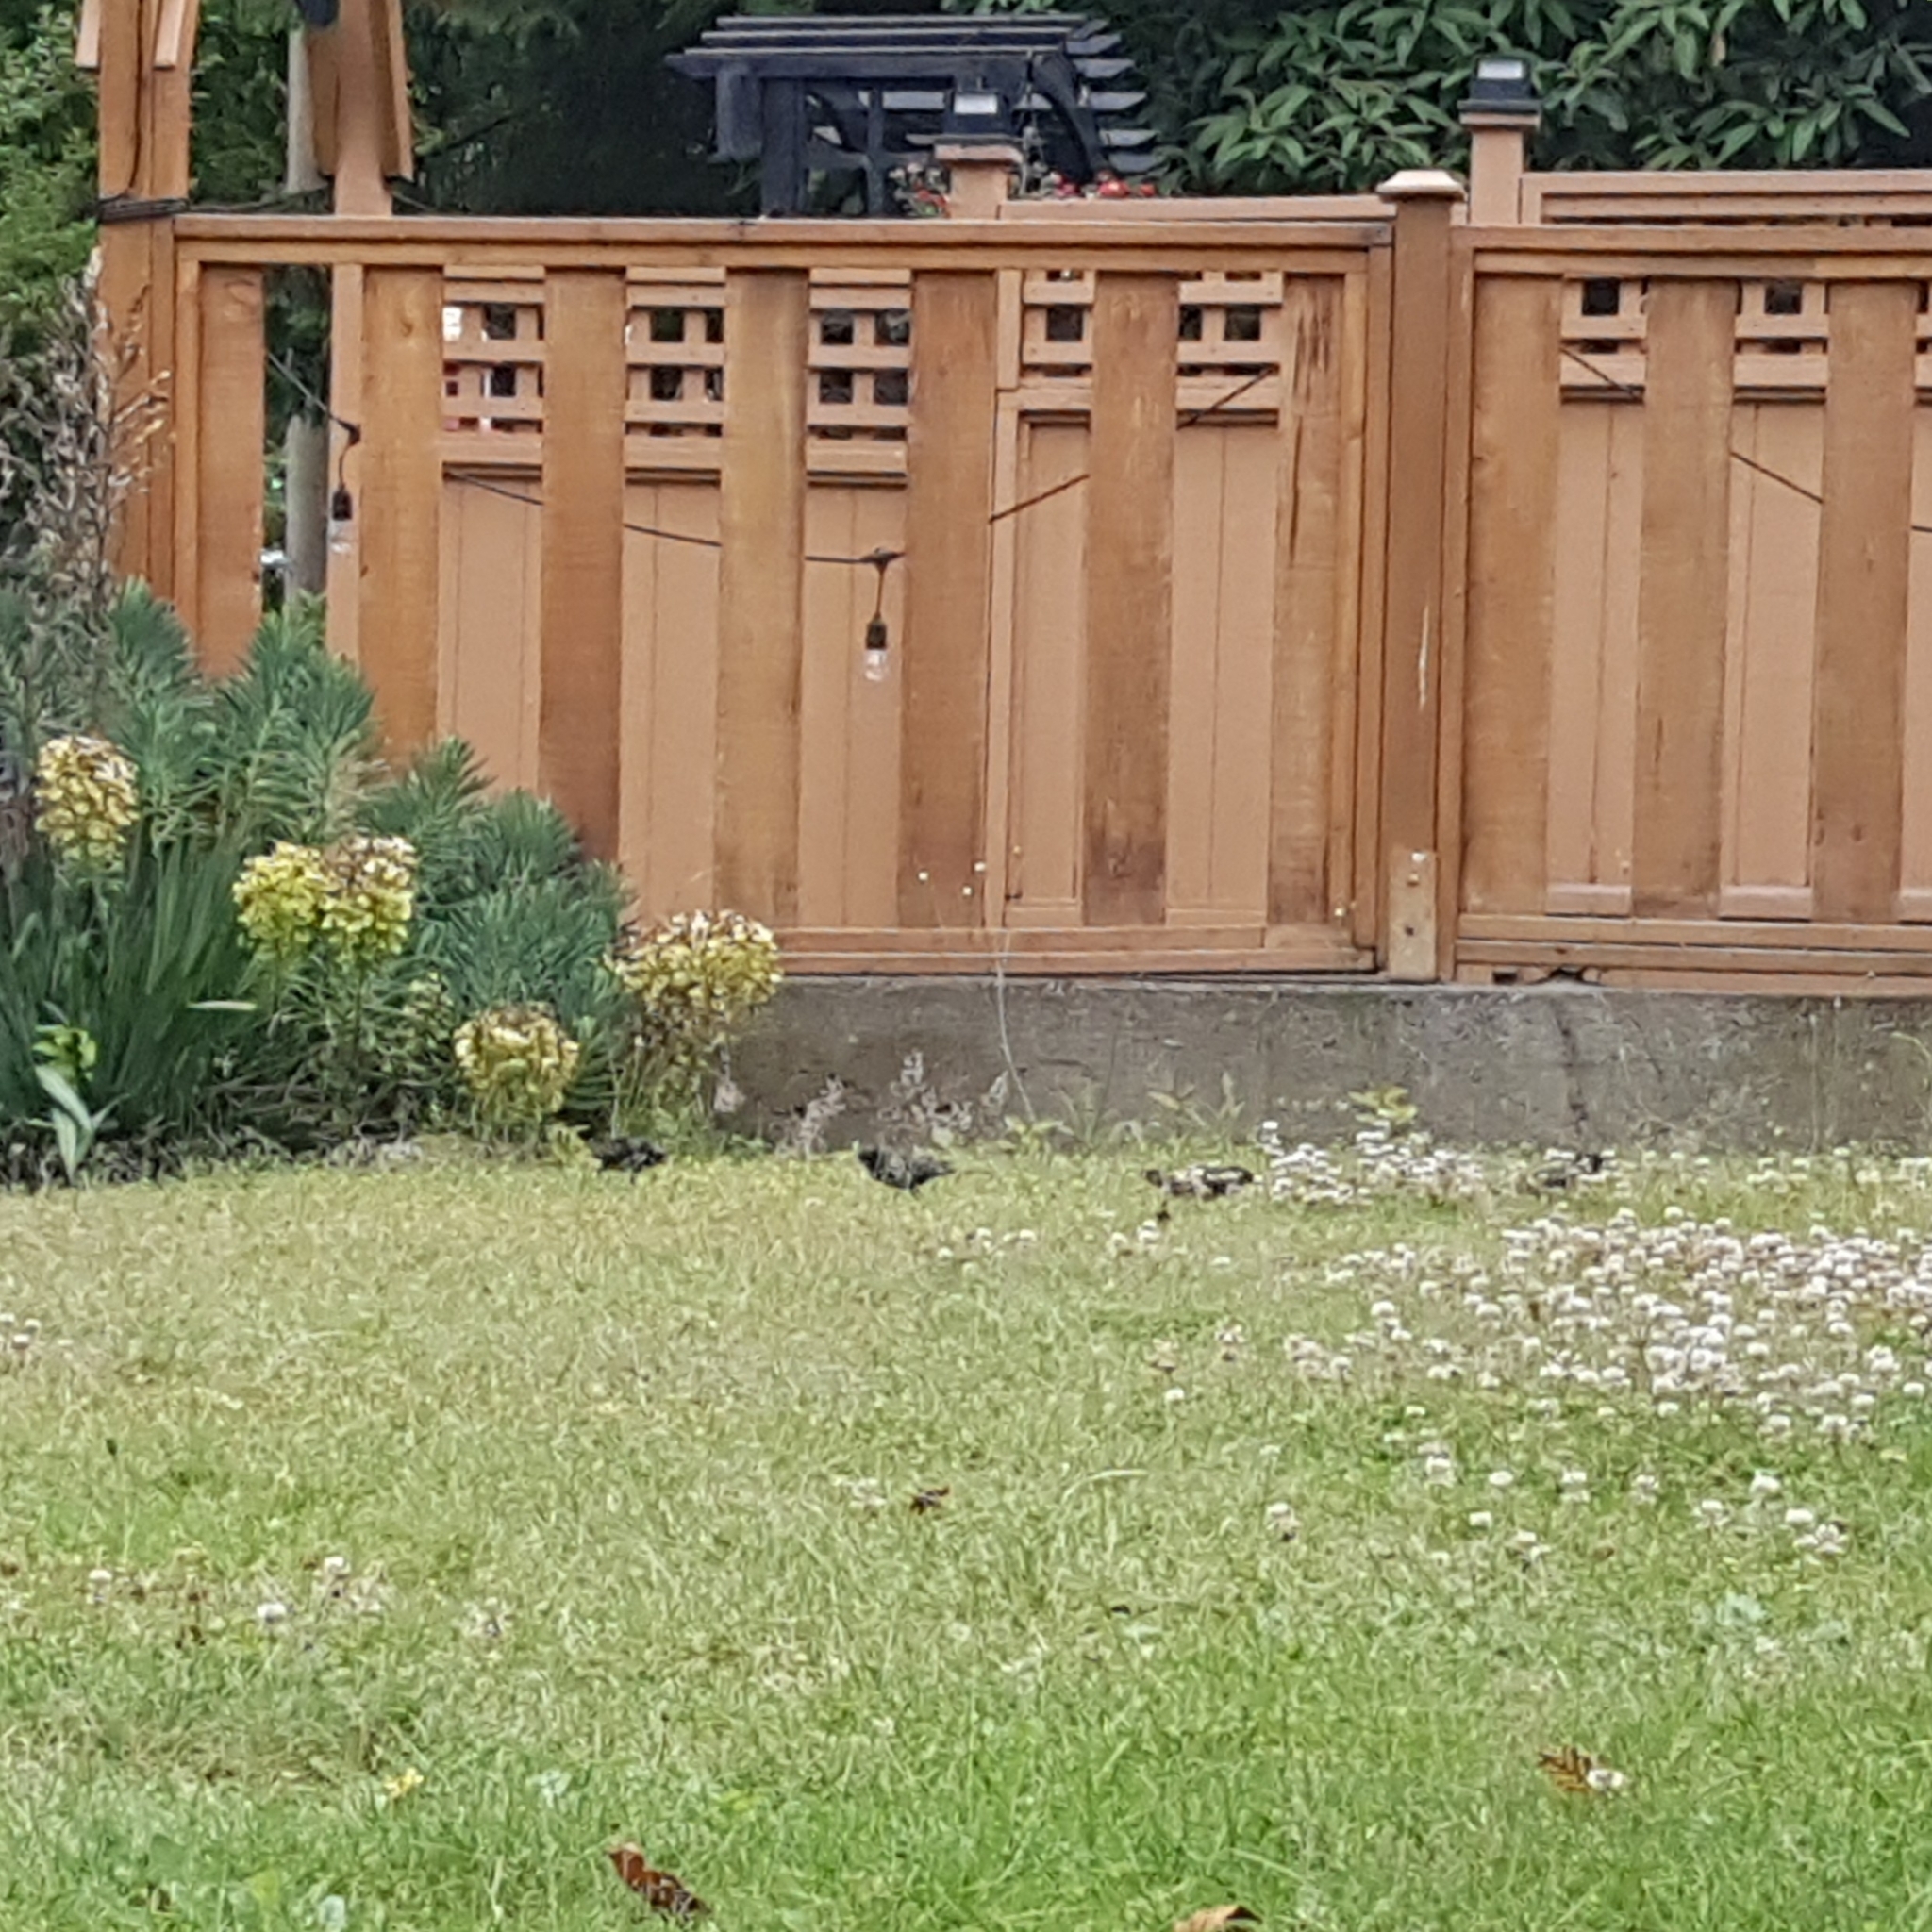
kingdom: Animalia
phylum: Chordata
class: Aves
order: Passeriformes
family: Sturnidae
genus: Sturnus
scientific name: Sturnus vulgaris
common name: Common starling
